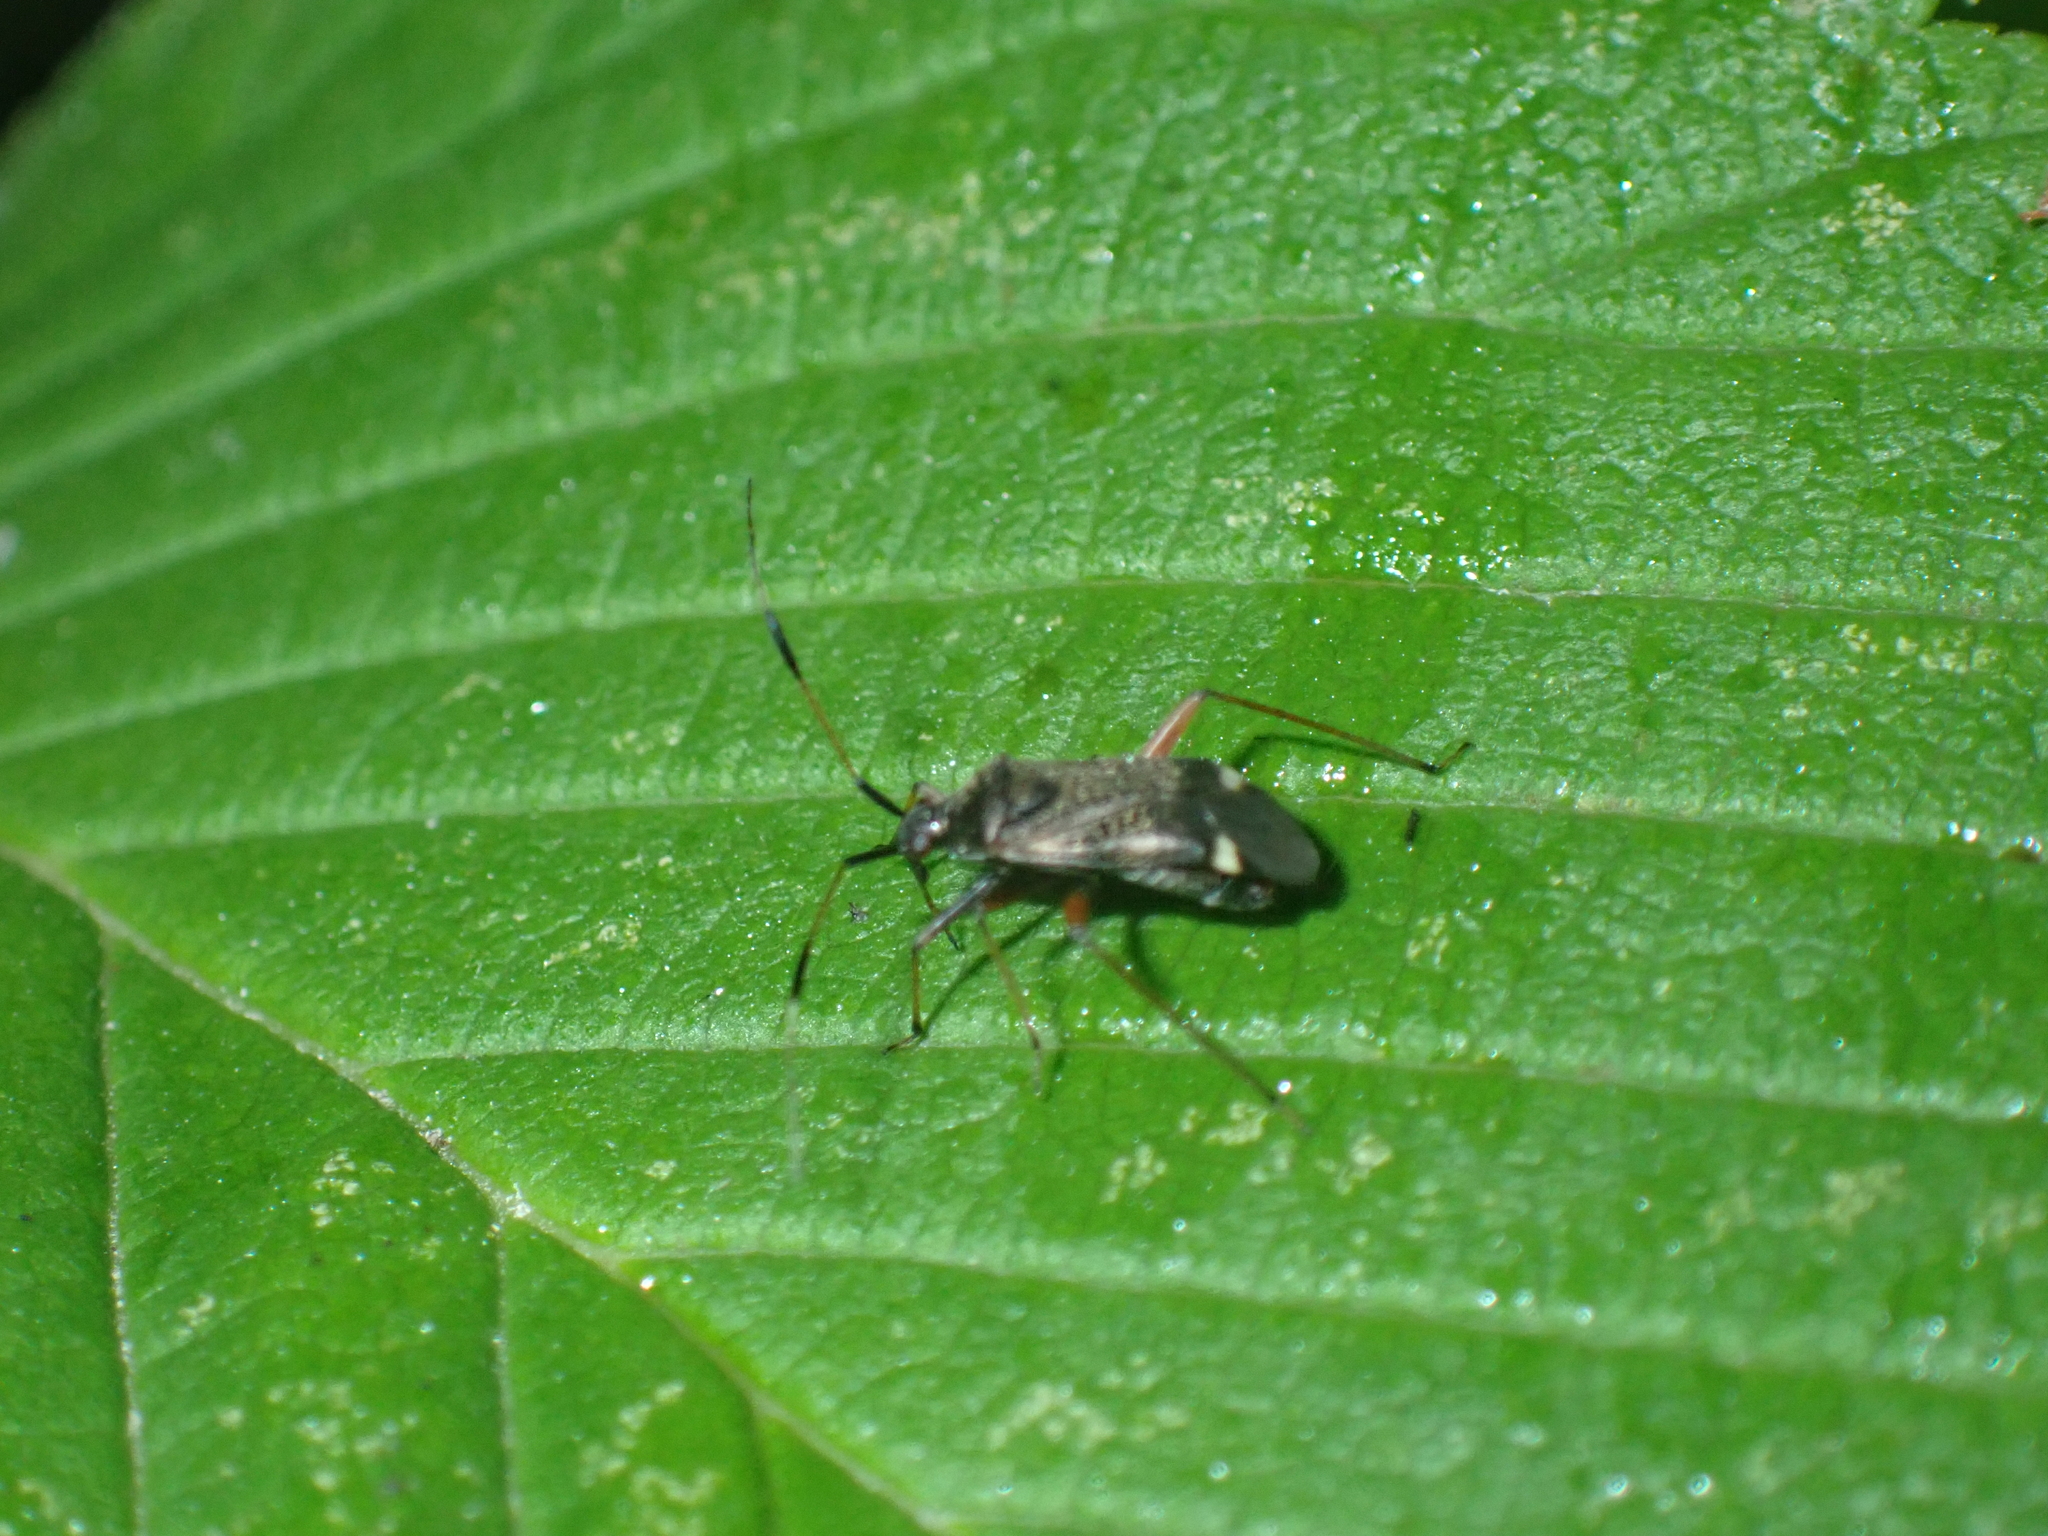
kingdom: Animalia
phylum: Arthropoda
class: Insecta
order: Hemiptera
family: Miridae
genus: Closterotomus
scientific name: Closterotomus biclavatus
